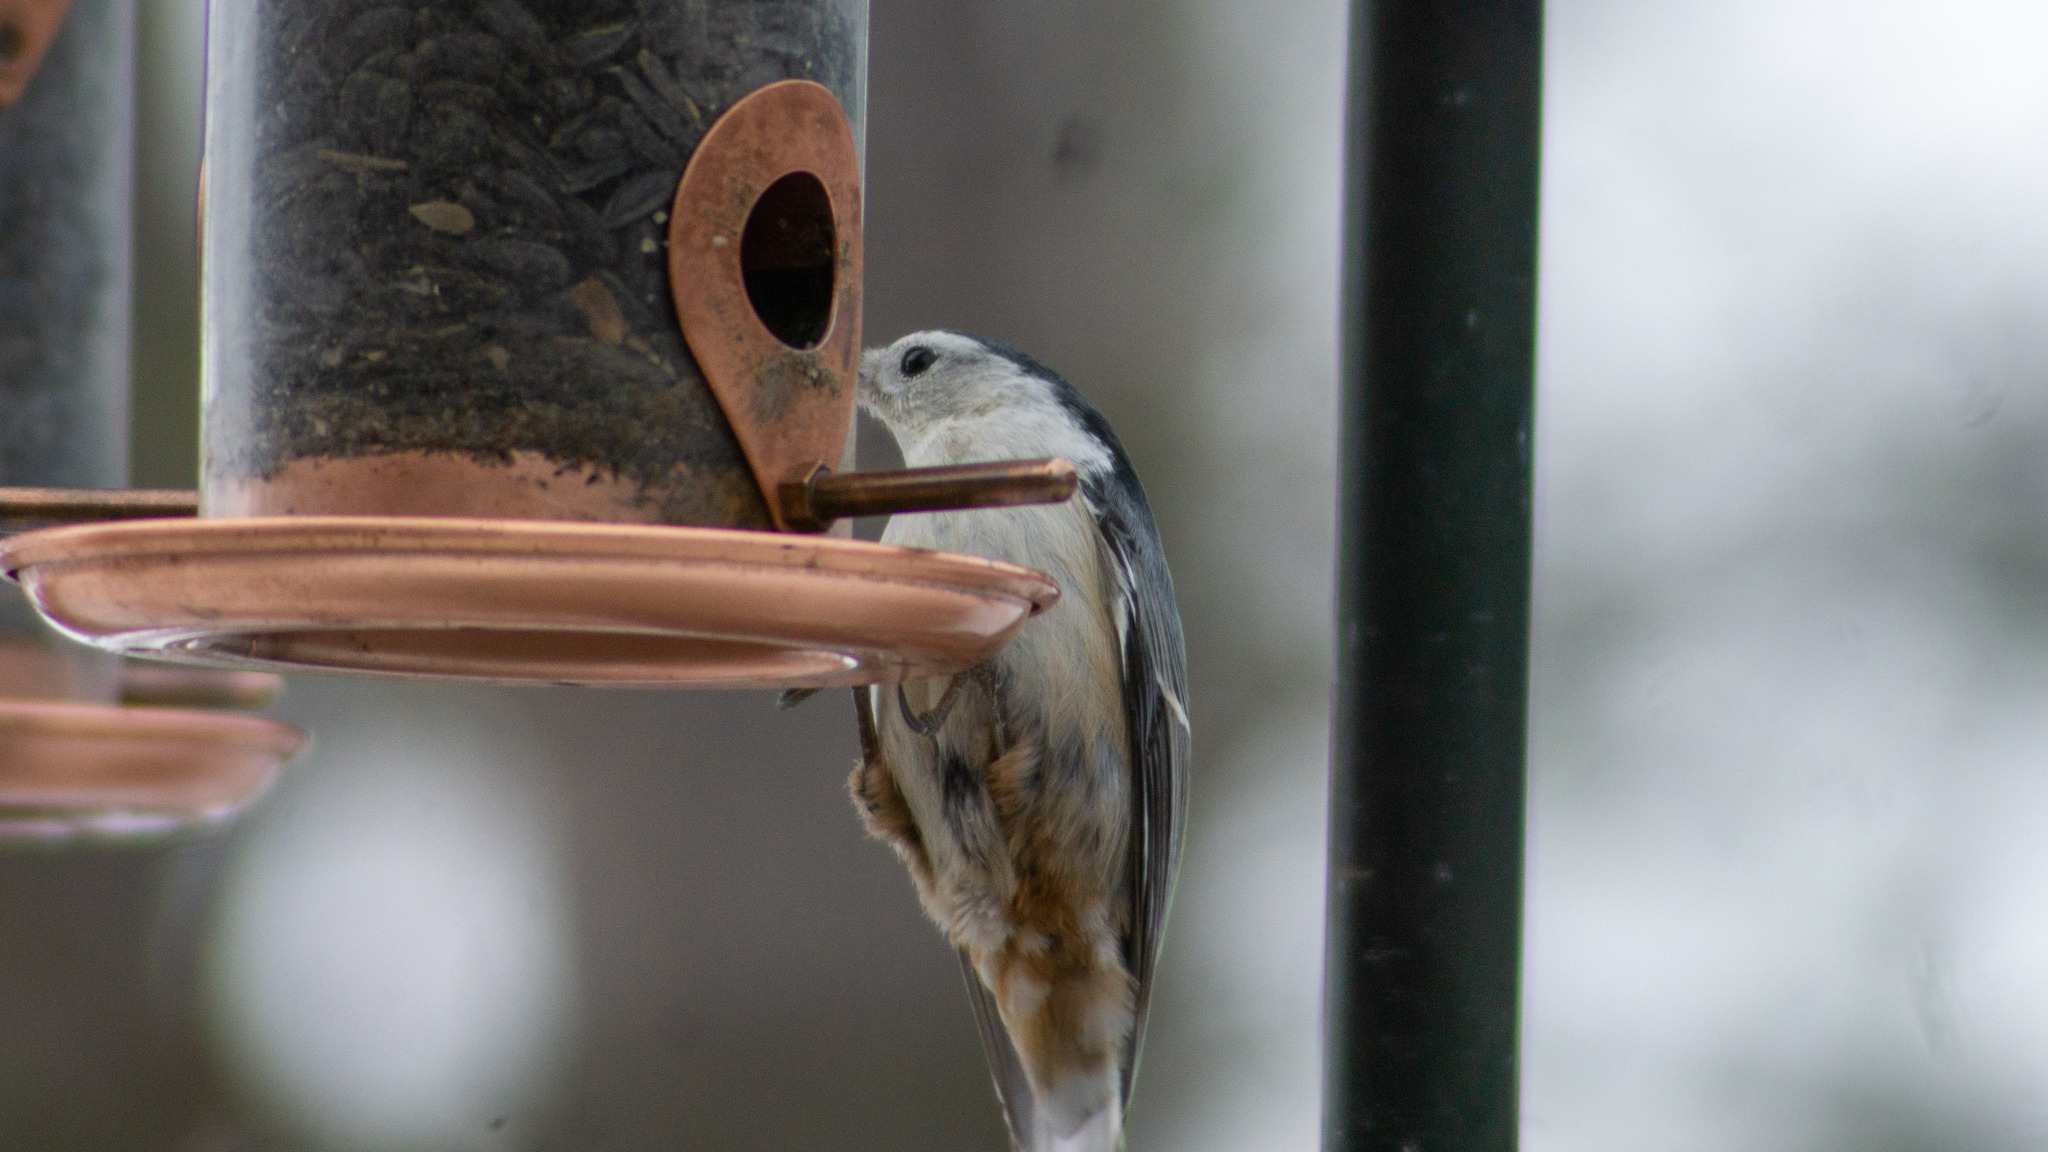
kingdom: Animalia
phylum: Chordata
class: Aves
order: Passeriformes
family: Sittidae
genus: Sitta
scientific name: Sitta carolinensis
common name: White-breasted nuthatch
